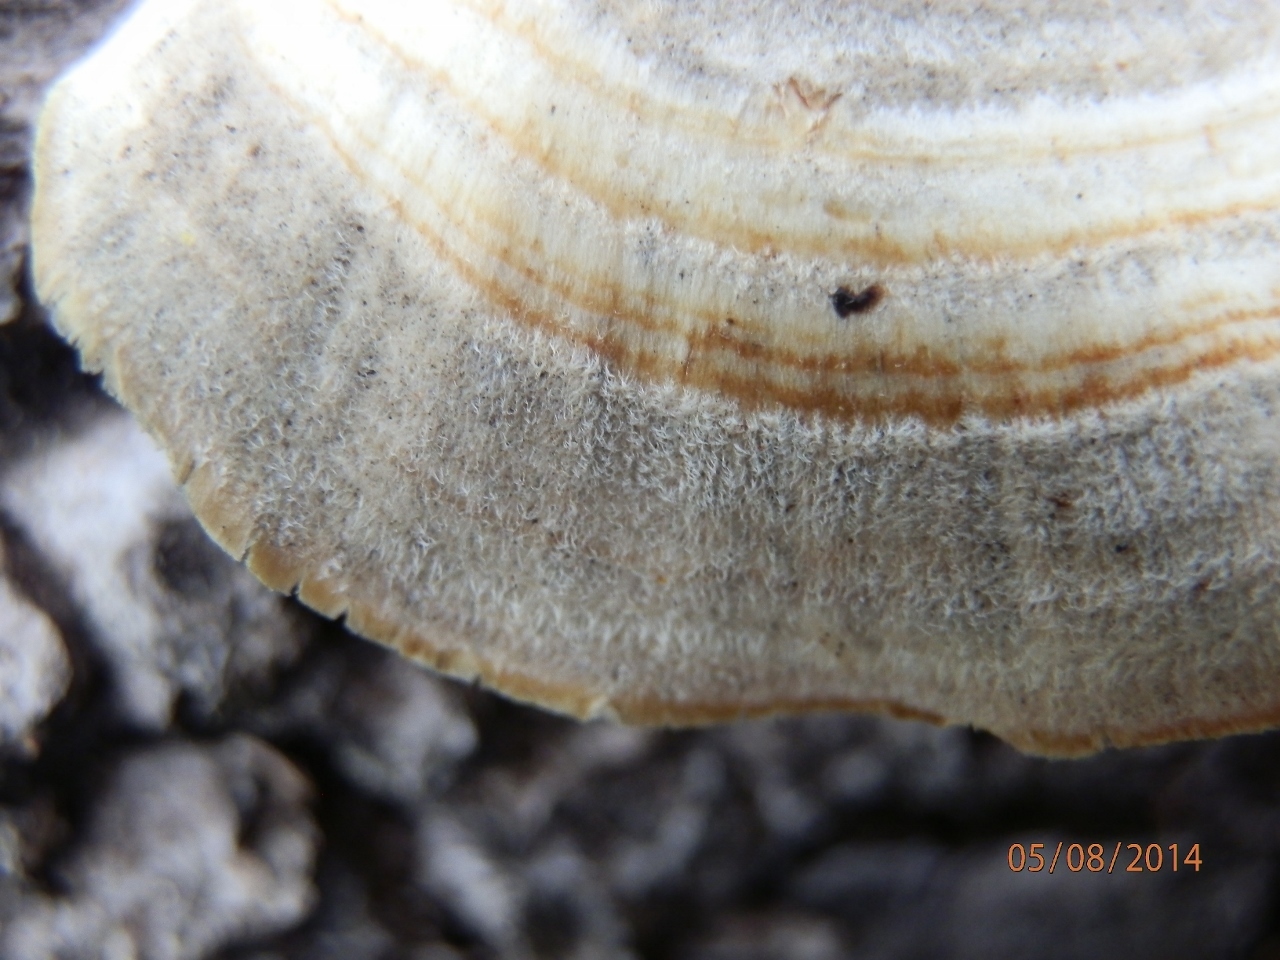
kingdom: Fungi
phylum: Basidiomycota
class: Agaricomycetes
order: Polyporales
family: Polyporaceae
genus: Trametes
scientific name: Trametes versicolor
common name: Turkeytail
